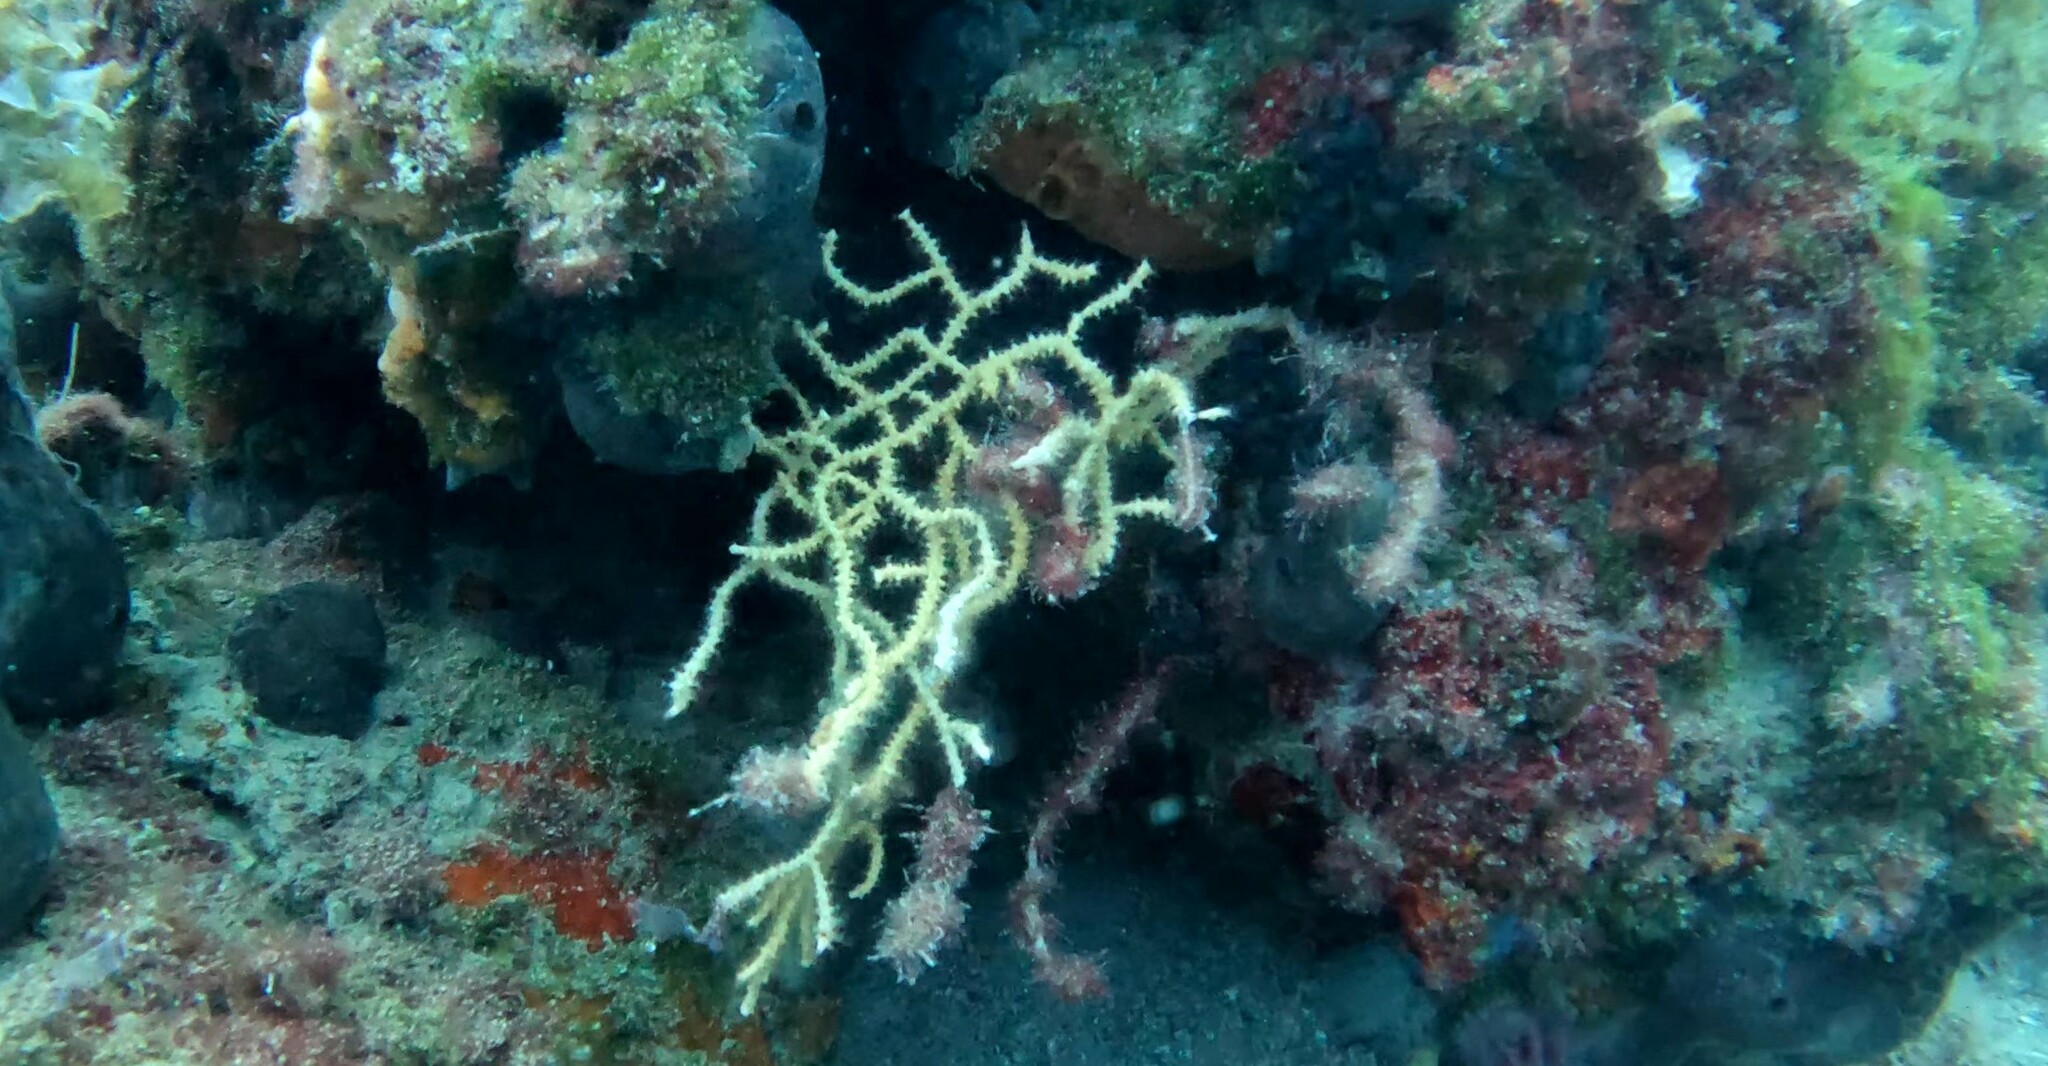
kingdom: Animalia
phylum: Cnidaria
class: Anthozoa
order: Malacalcyonacea
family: Eunicellidae
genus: Eunicella
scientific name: Eunicella cavolini
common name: Yellow gorgonian
